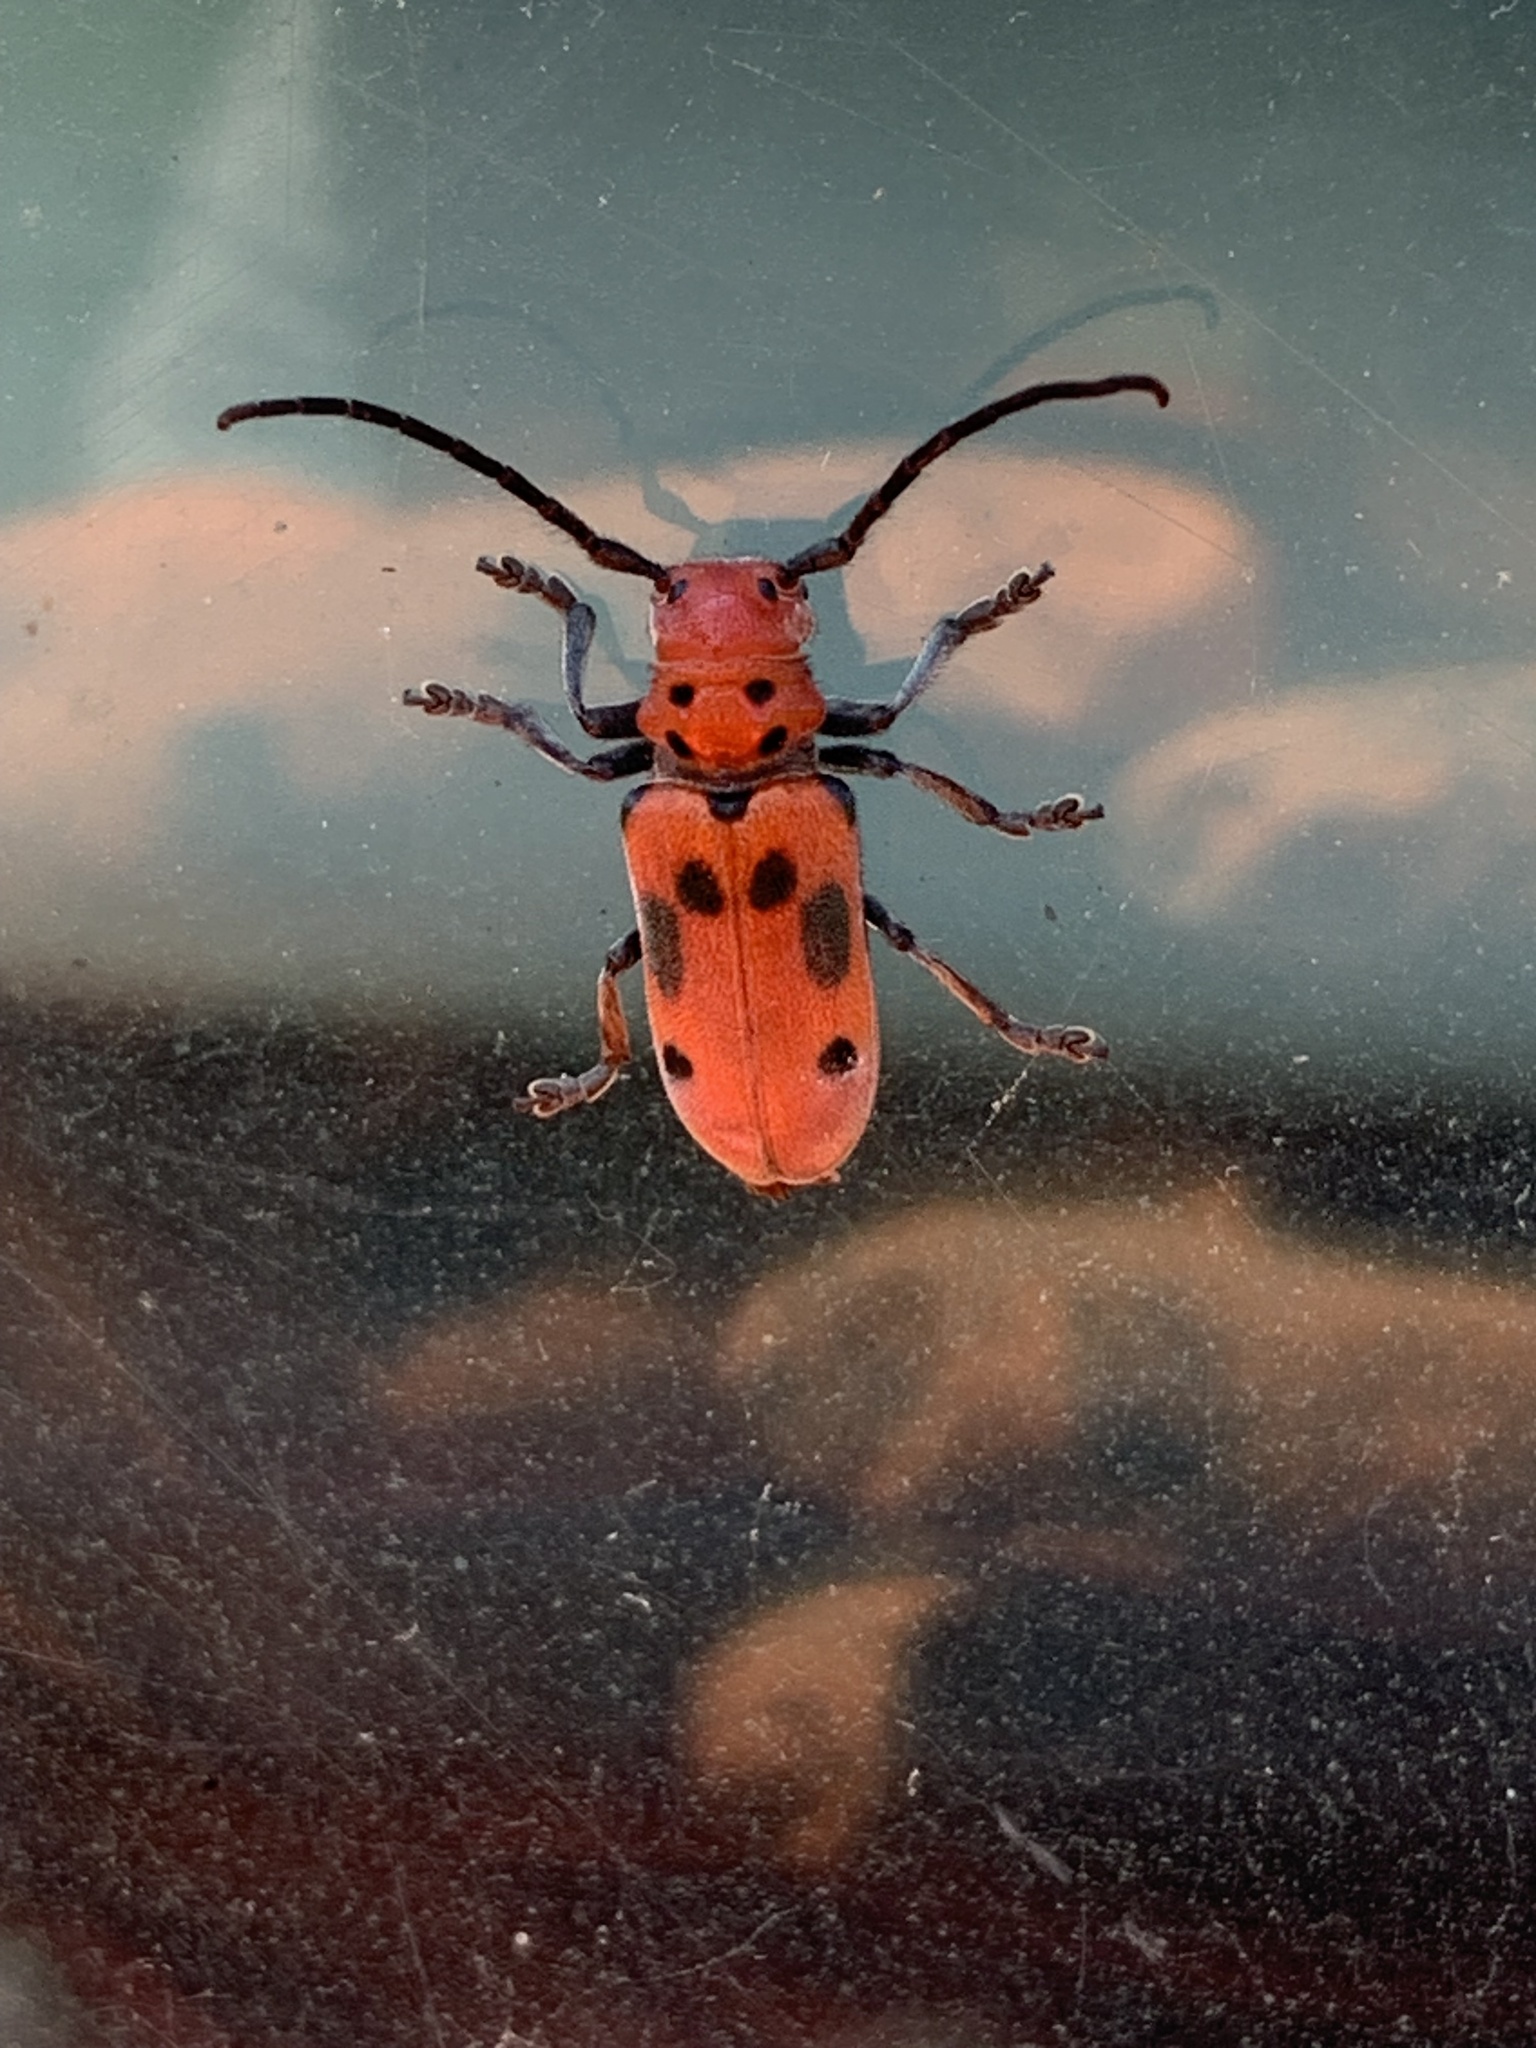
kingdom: Animalia
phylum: Arthropoda
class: Insecta
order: Coleoptera
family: Cerambycidae
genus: Tetraopes
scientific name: Tetraopes tetrophthalmus
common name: Red milkweed beetle
